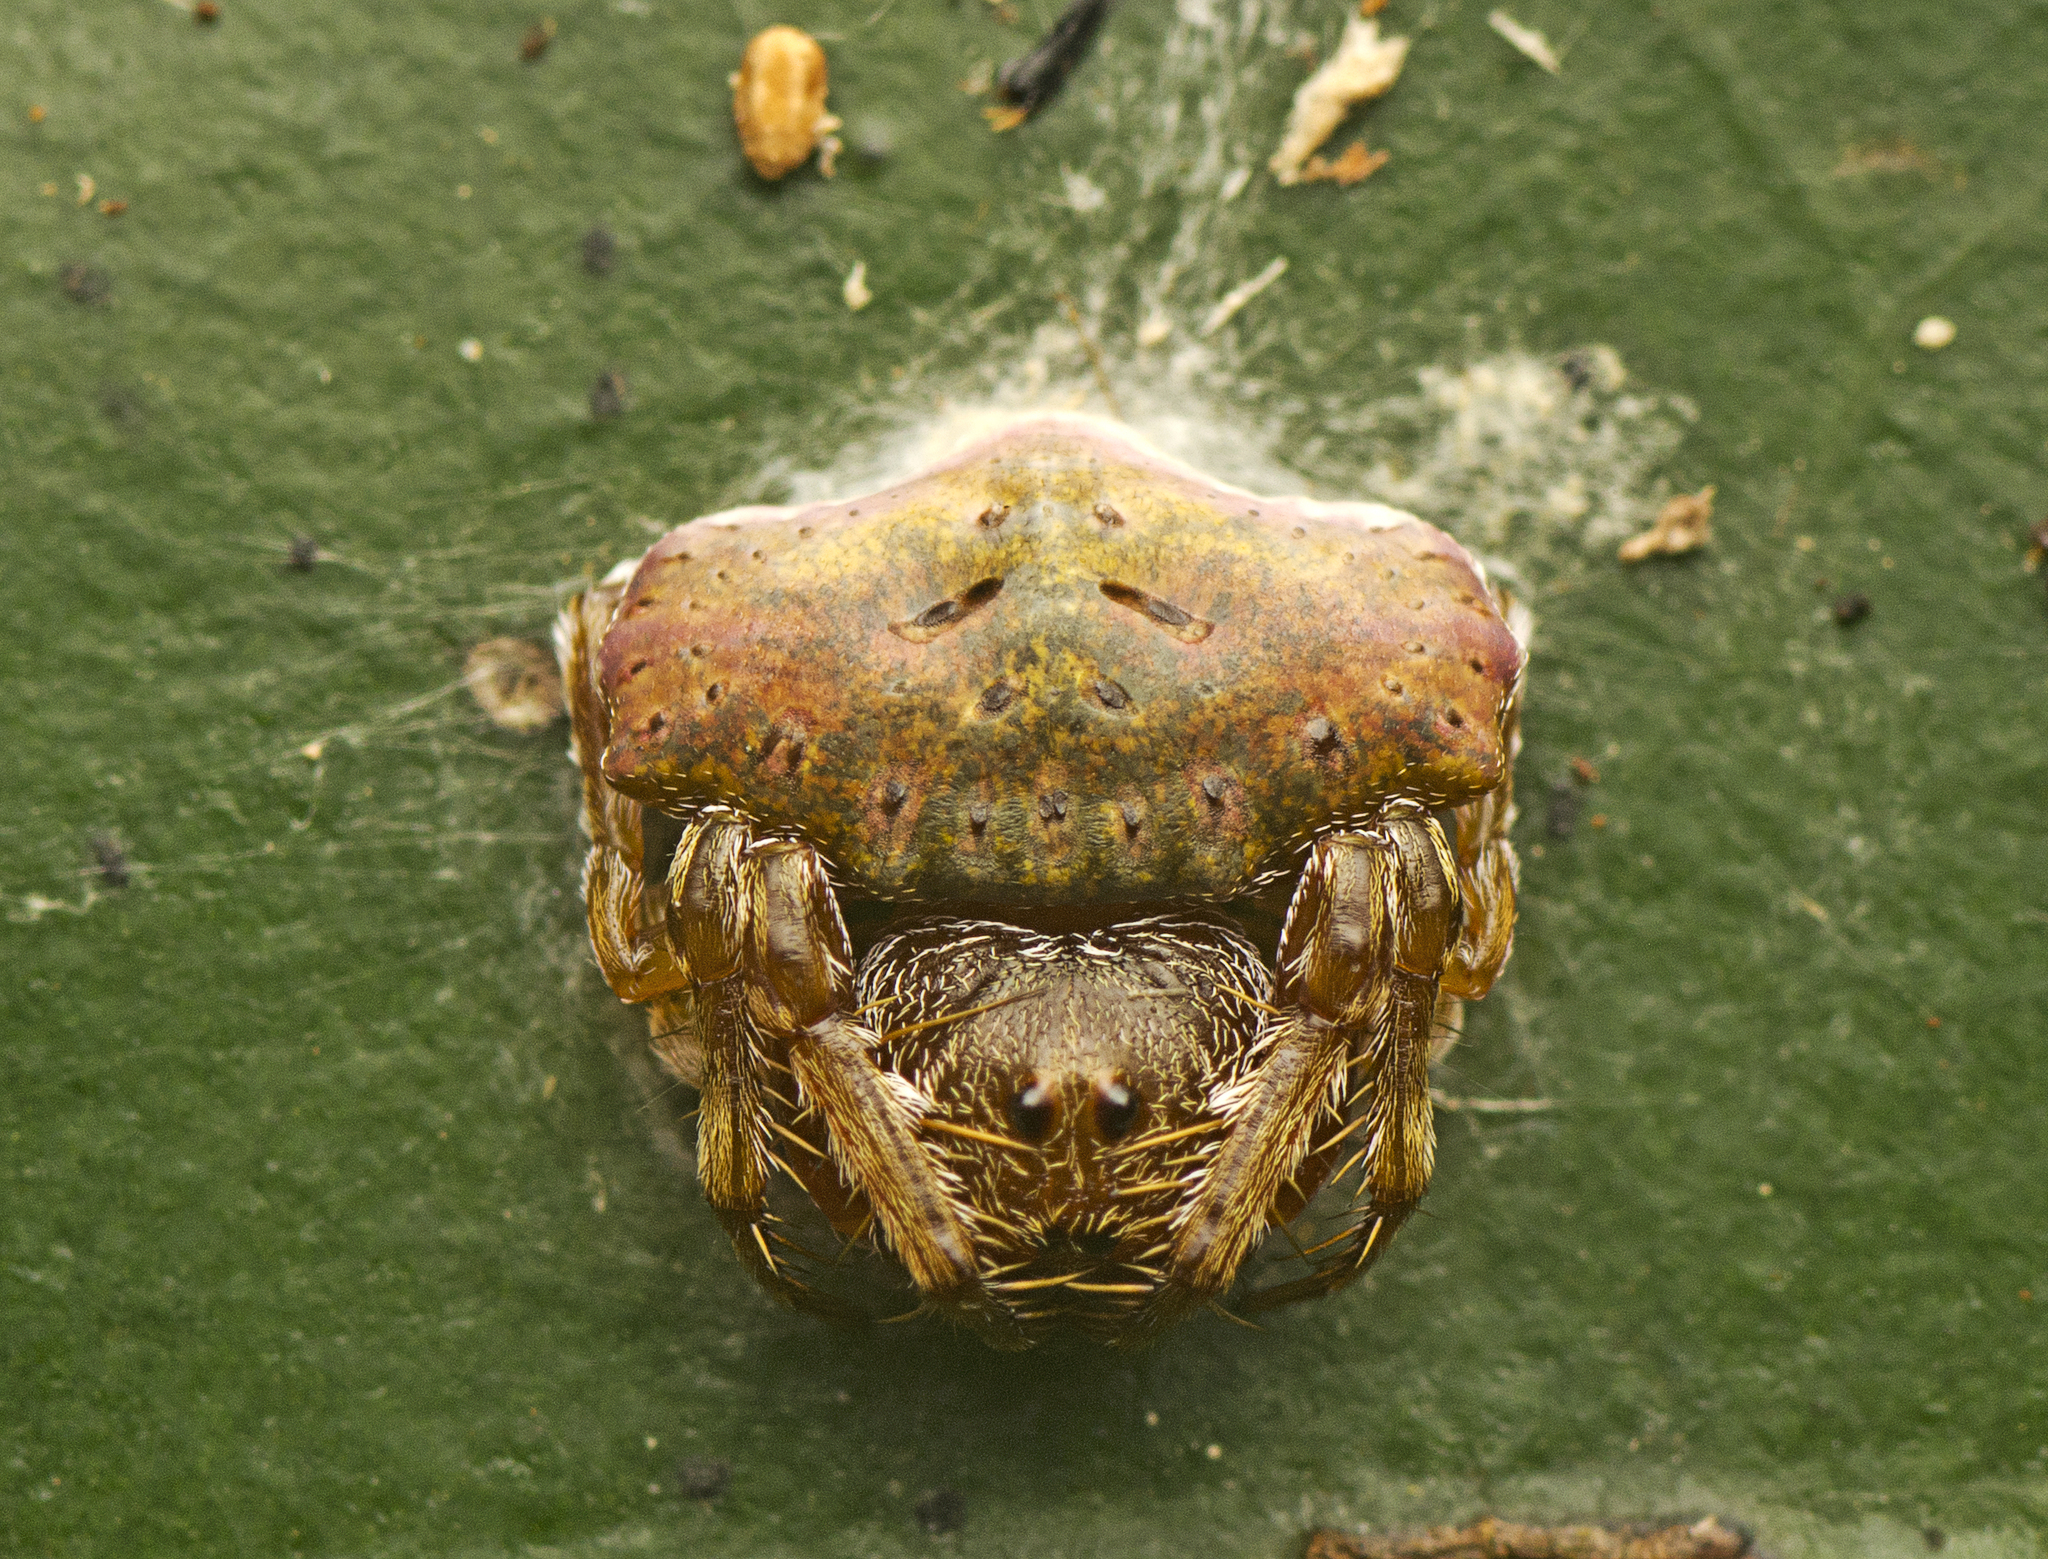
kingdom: Animalia
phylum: Arthropoda
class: Arachnida
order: Araneae
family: Arkyidae
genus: Arkys
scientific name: Arkys speechleyi
